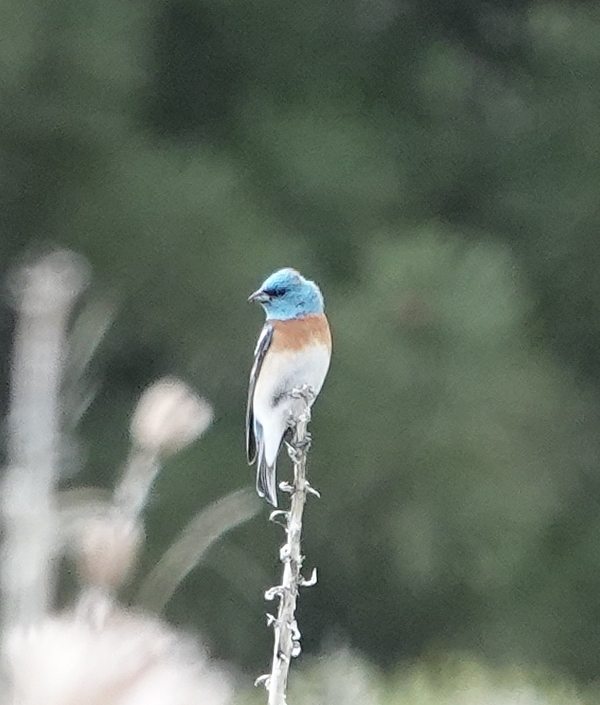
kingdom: Animalia
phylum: Chordata
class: Aves
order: Passeriformes
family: Cardinalidae
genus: Passerina
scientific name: Passerina amoena
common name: Lazuli bunting
